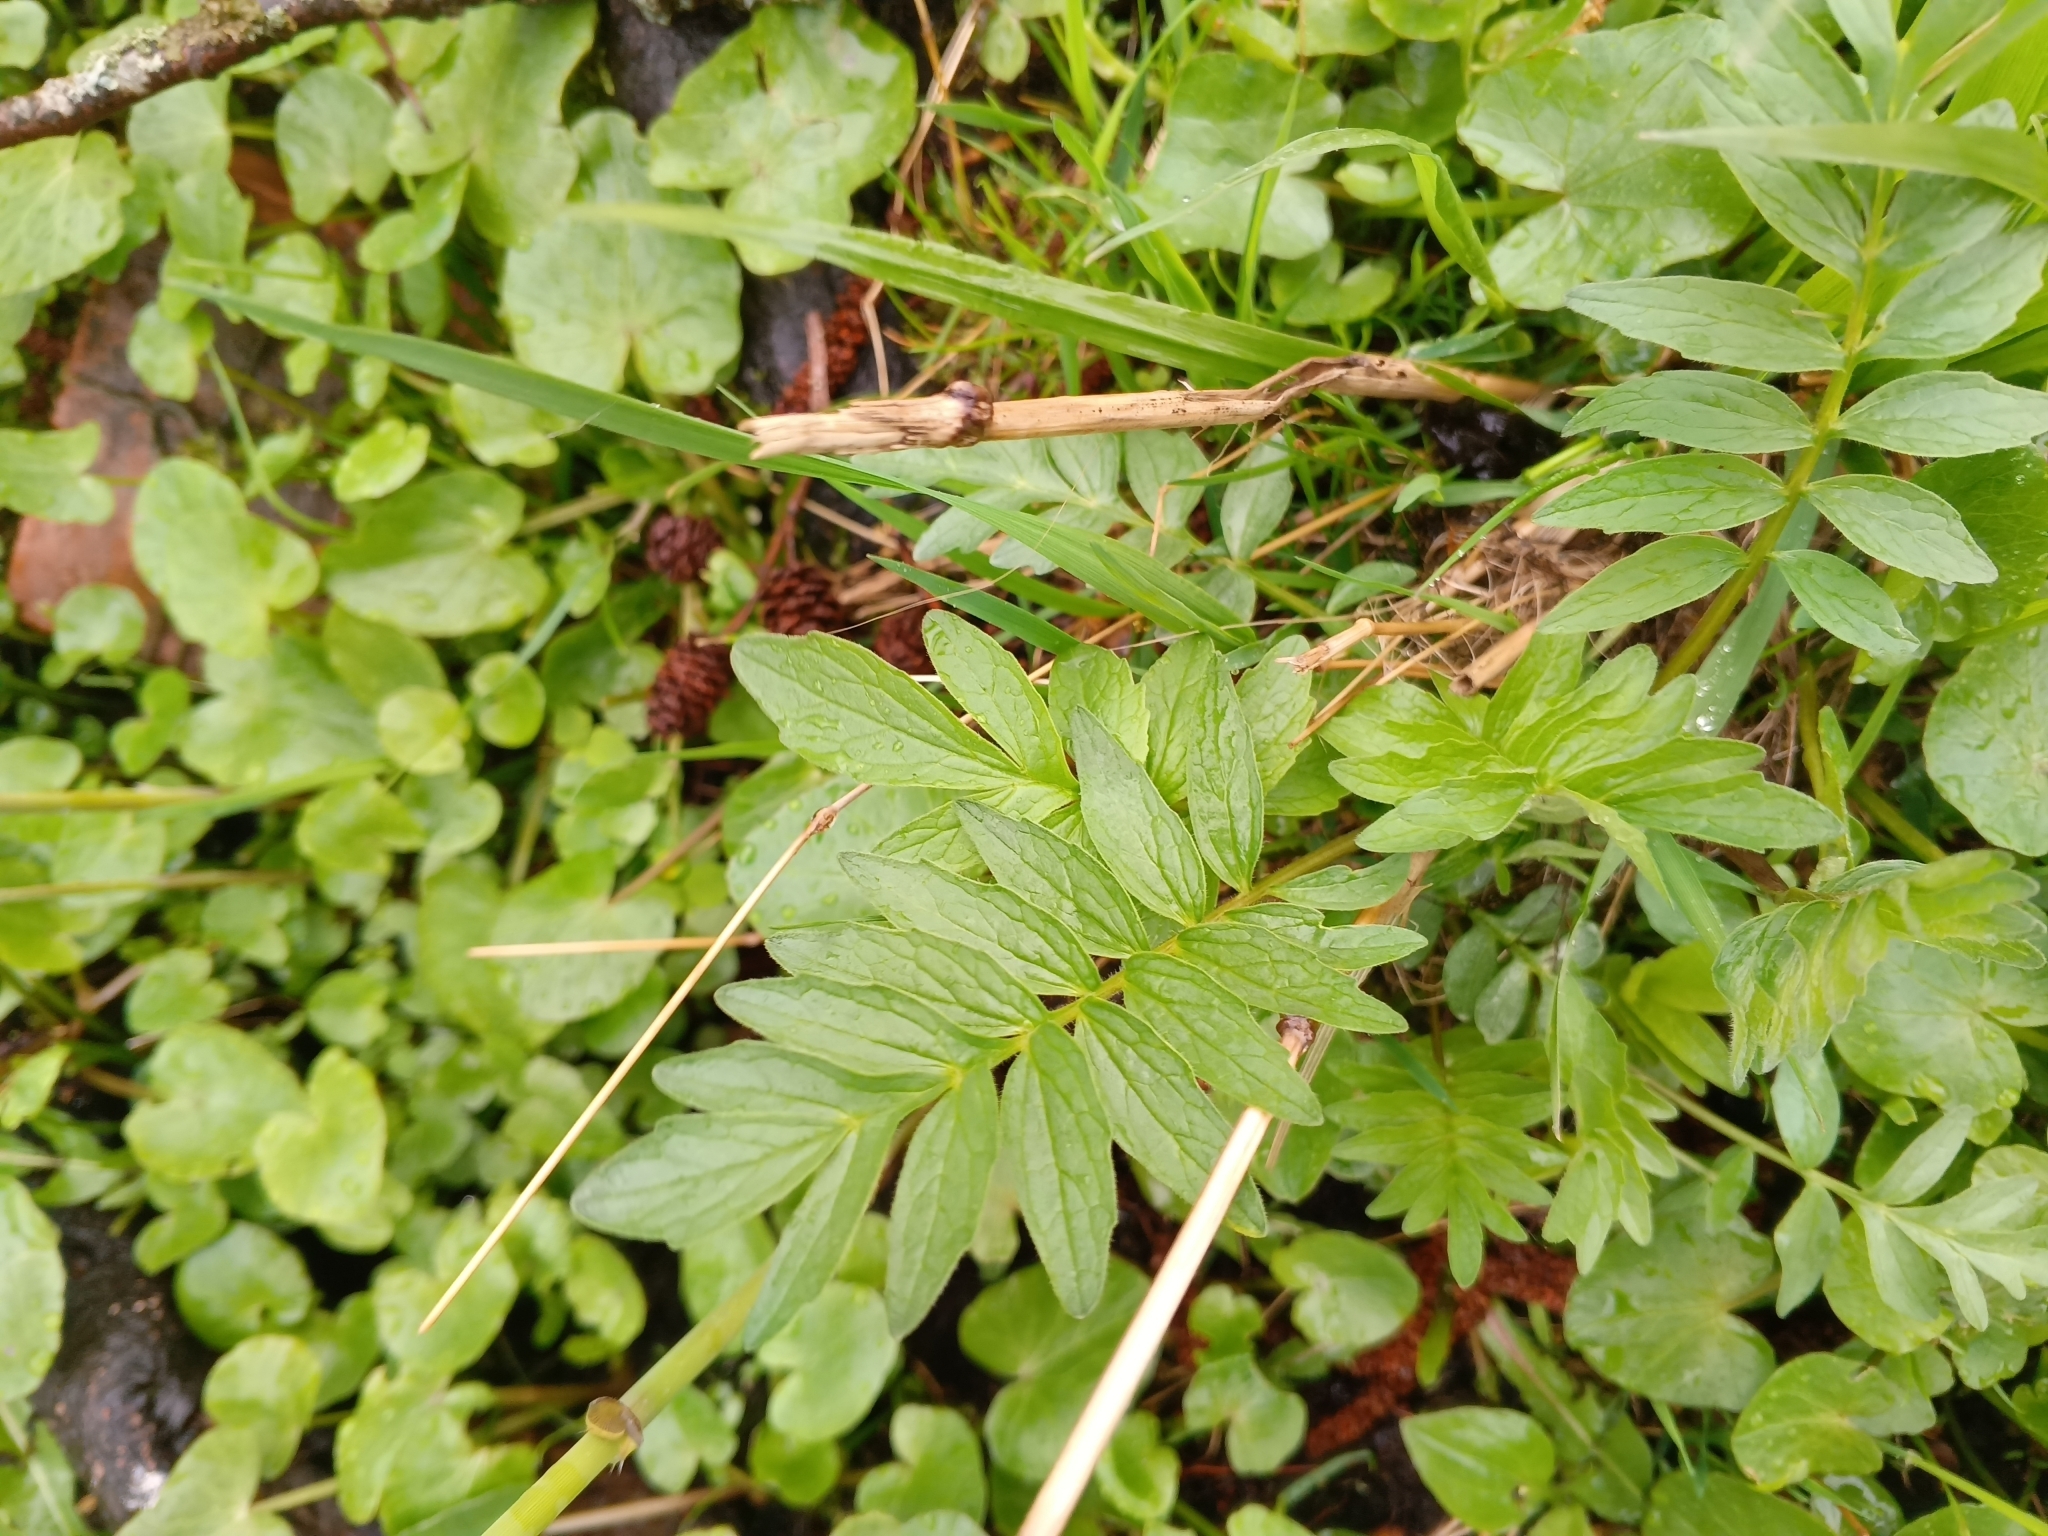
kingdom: Plantae
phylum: Tracheophyta
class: Magnoliopsida
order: Dipsacales
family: Caprifoliaceae
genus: Valeriana
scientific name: Valeriana officinalis
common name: Common valerian
